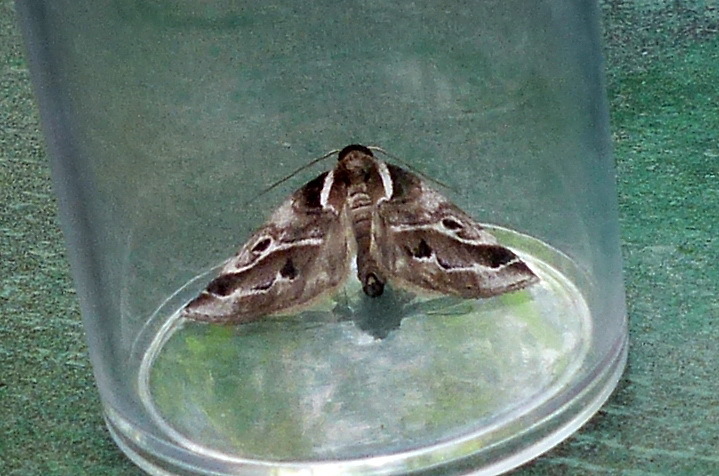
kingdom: Animalia
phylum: Arthropoda
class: Insecta
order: Lepidoptera
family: Nolidae
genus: Baileya
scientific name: Baileya doubledayi
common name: Doubleday's baileya moth
